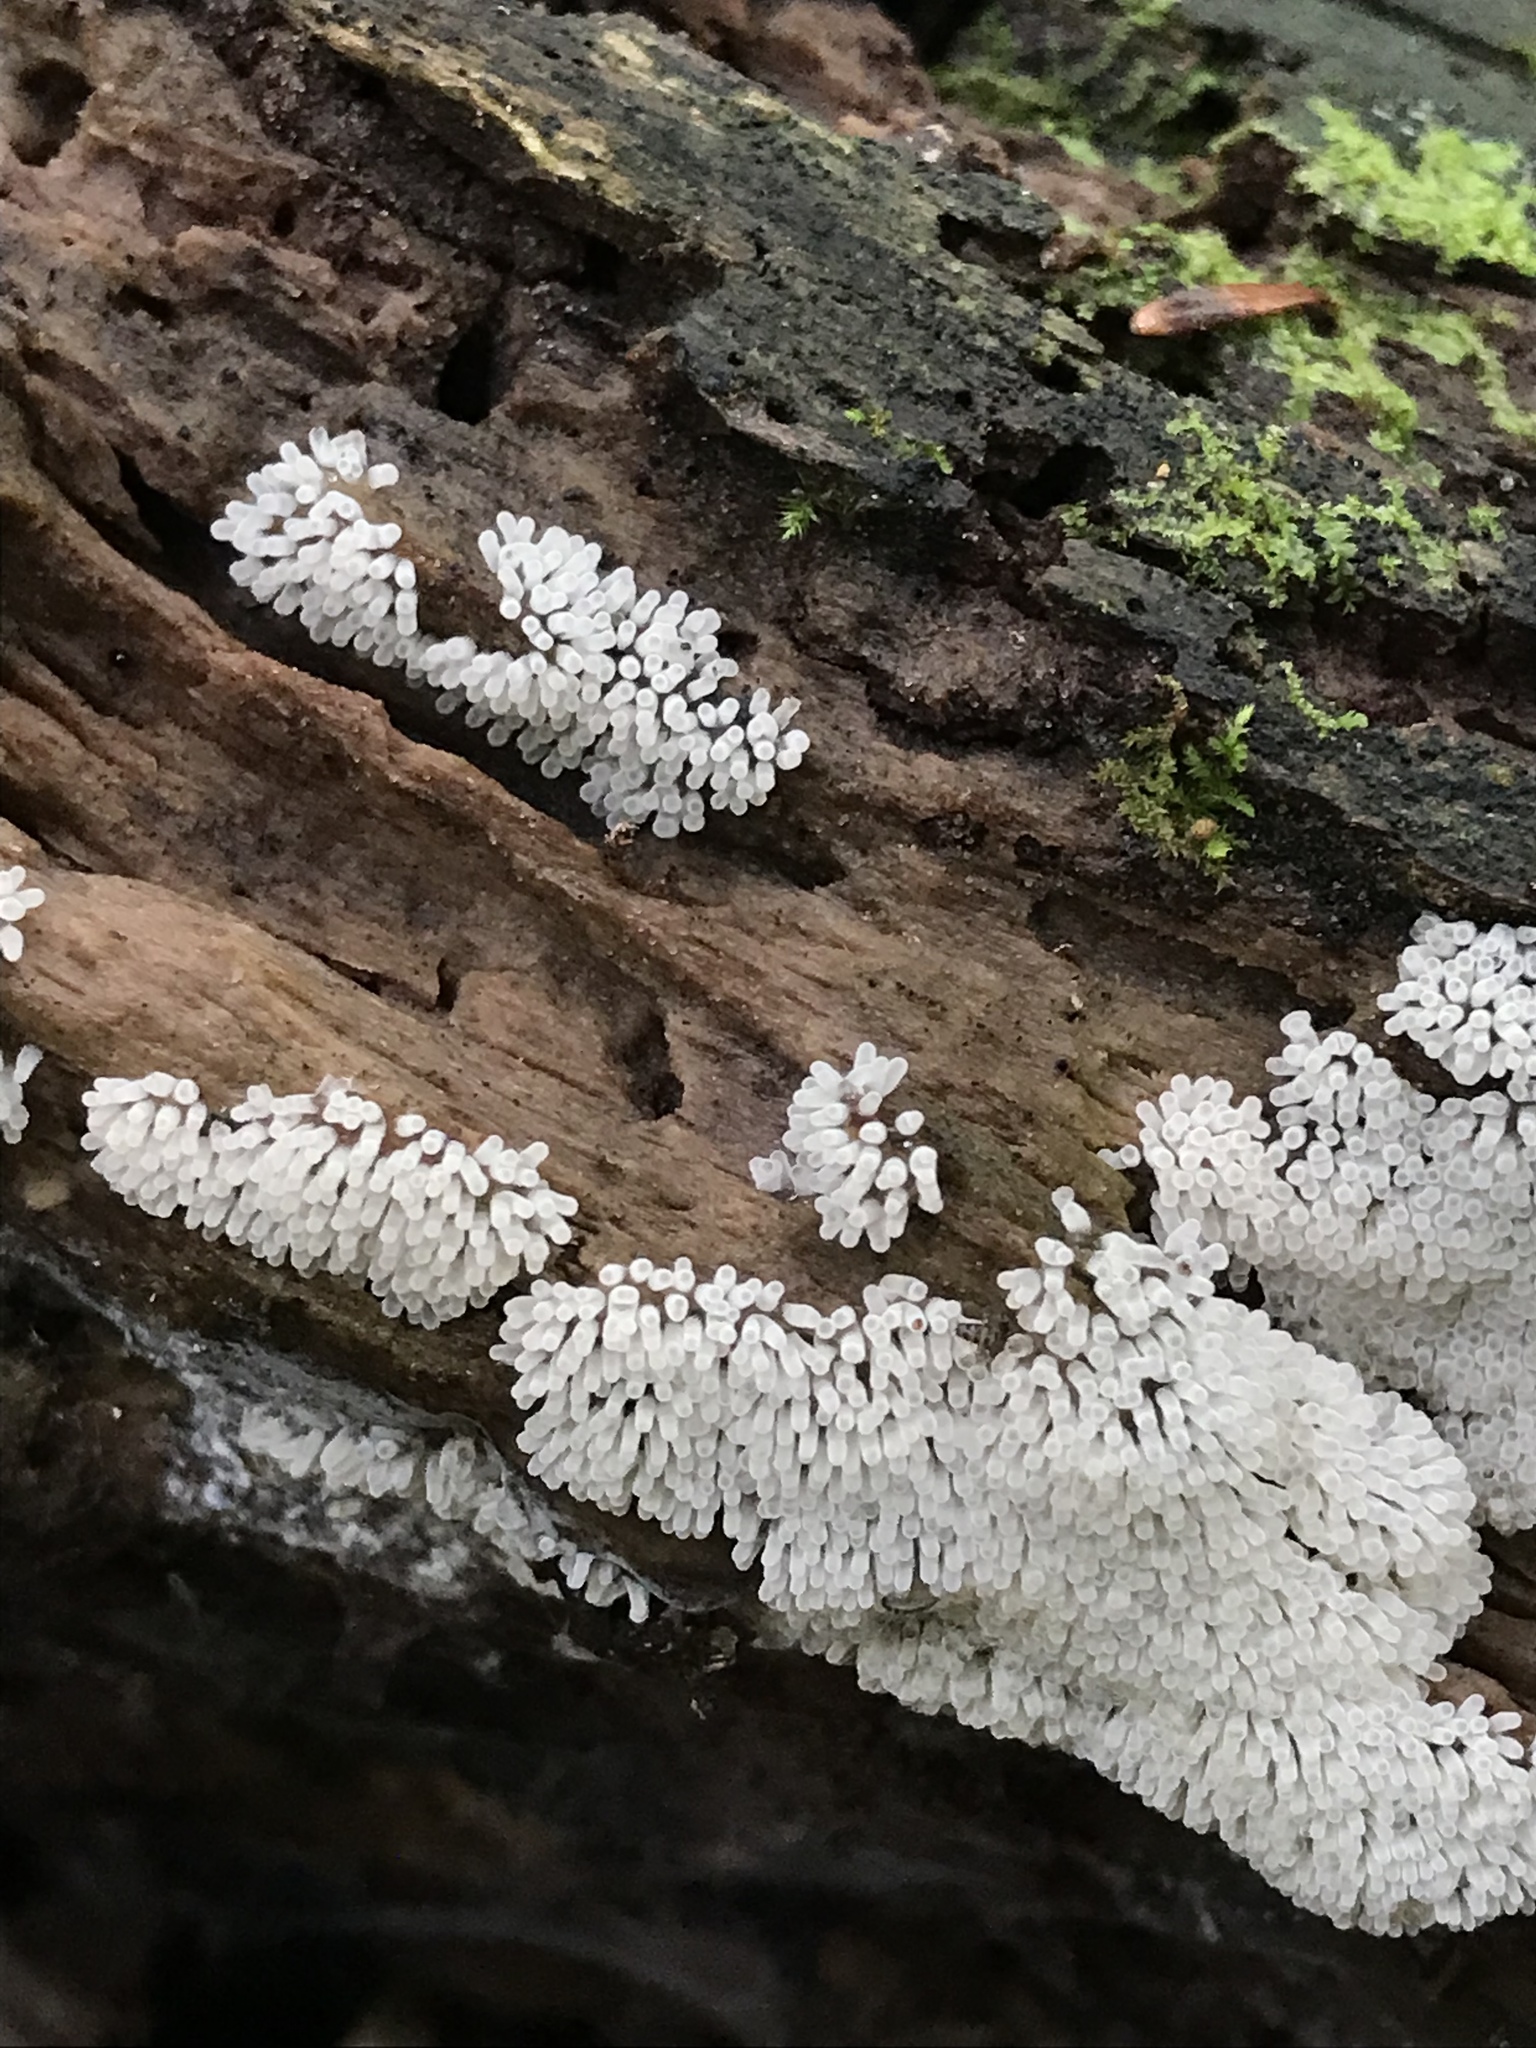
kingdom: Protozoa
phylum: Mycetozoa
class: Protosteliomycetes
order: Ceratiomyxales
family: Ceratiomyxaceae
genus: Ceratiomyxa
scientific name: Ceratiomyxa fruticulosa
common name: Honeycomb coral slime mold
